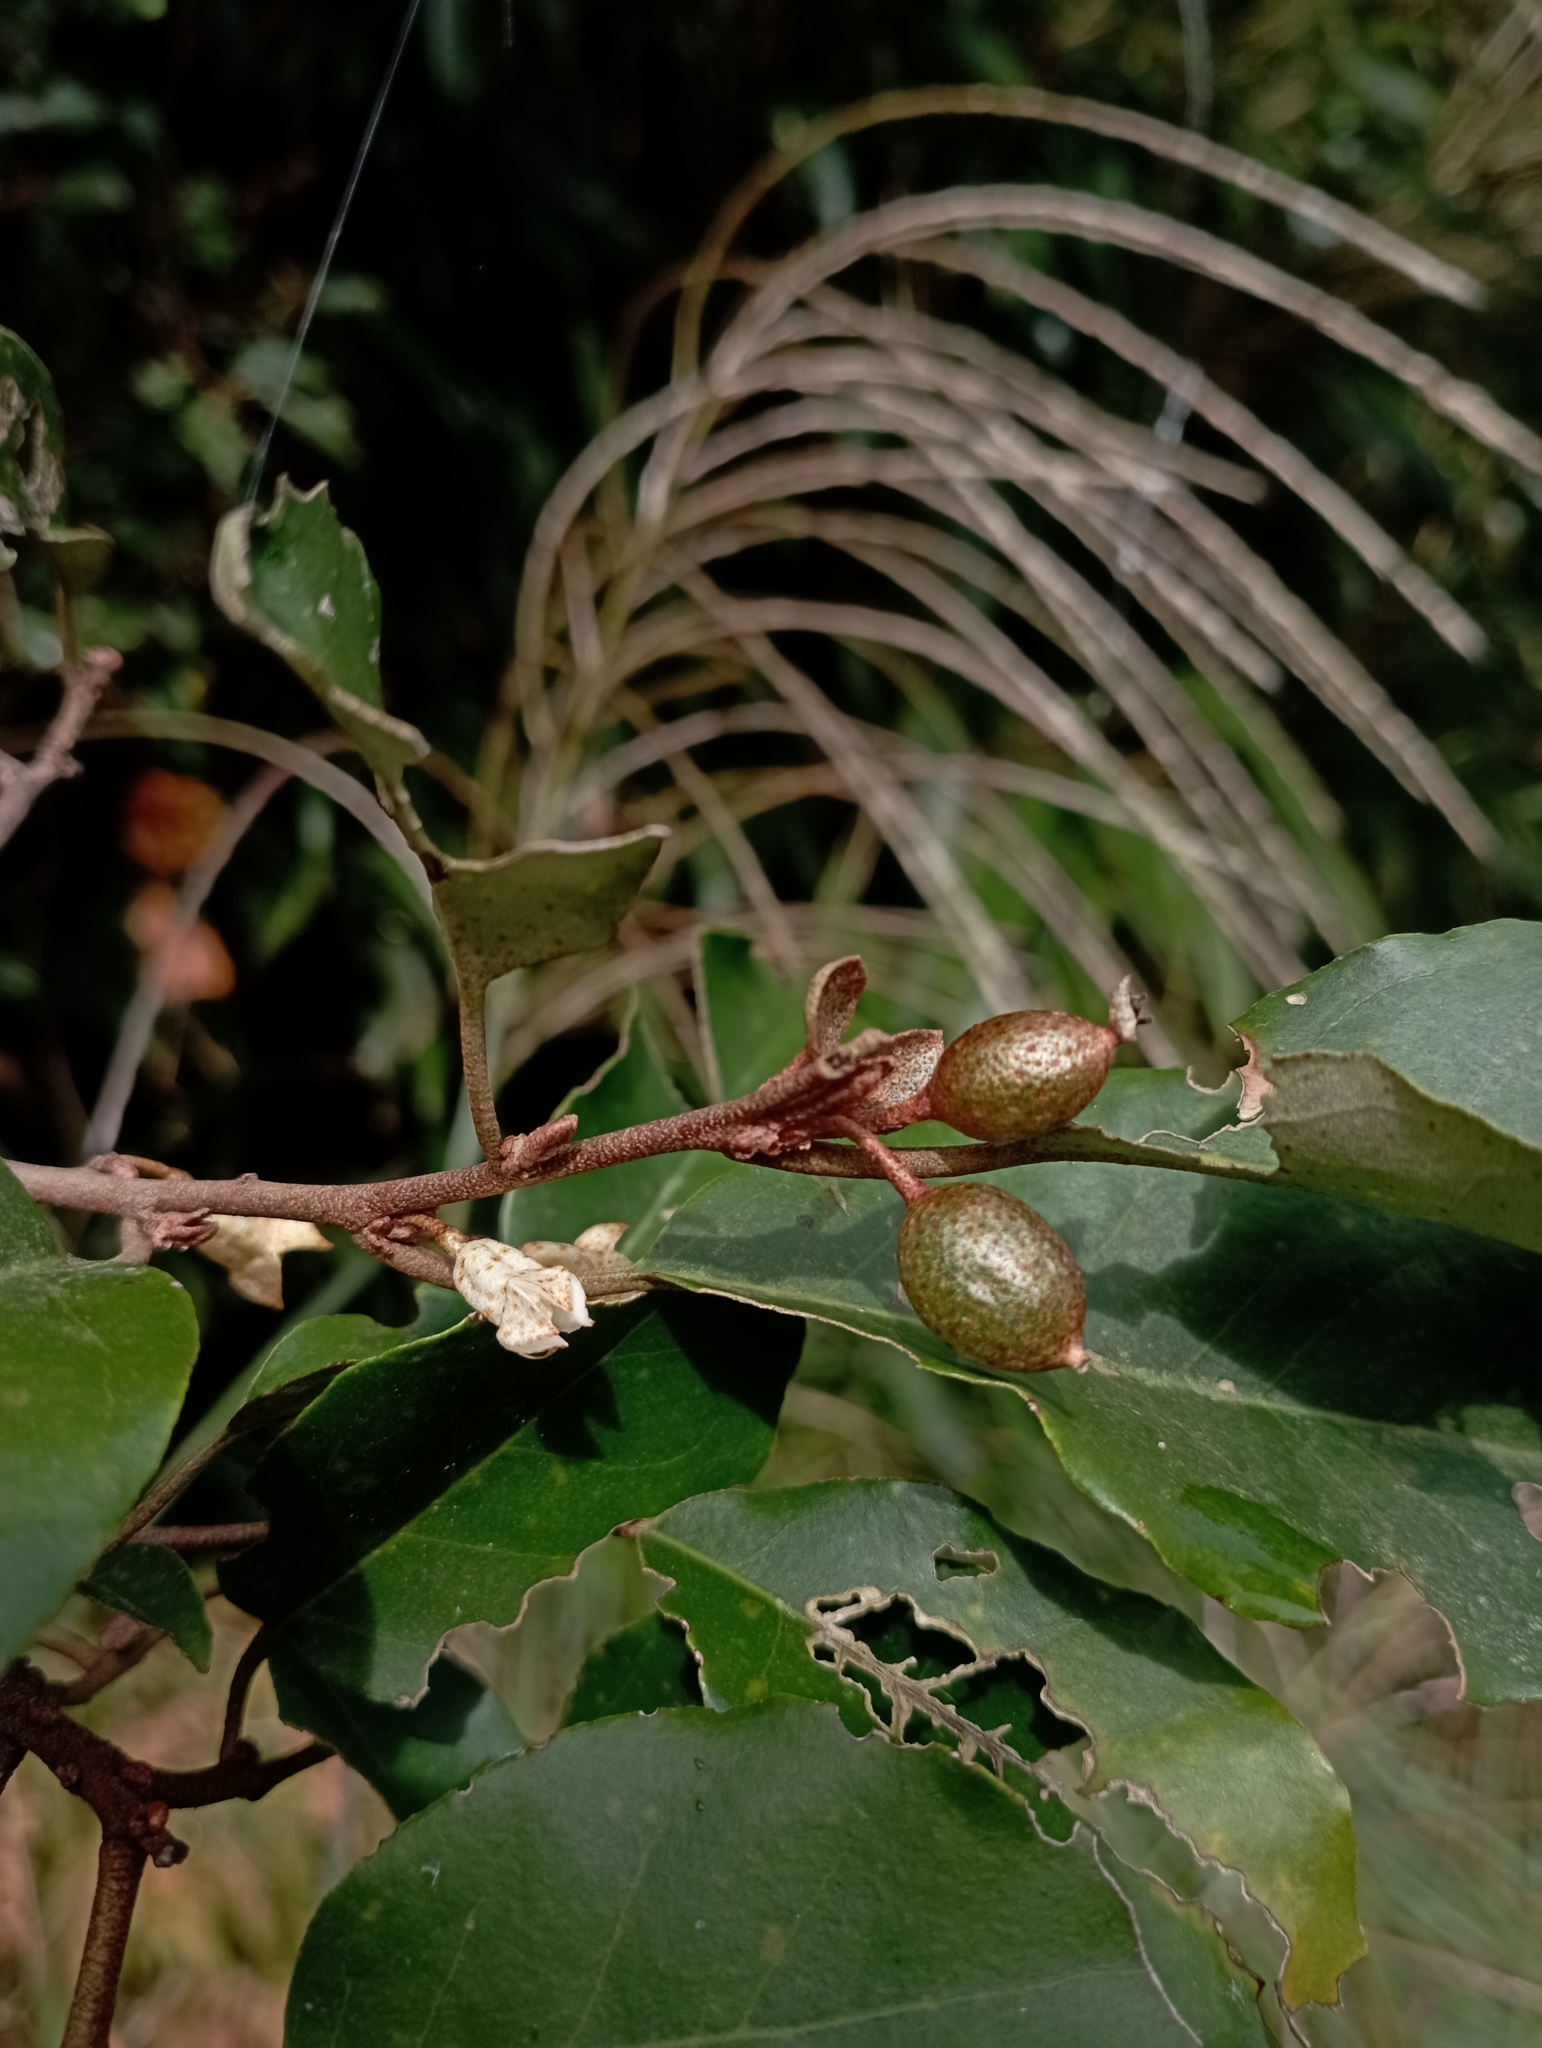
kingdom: Plantae
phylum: Tracheophyta
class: Magnoliopsida
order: Rosales
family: Elaeagnaceae
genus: Elaeagnus
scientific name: Elaeagnus thunbergii
